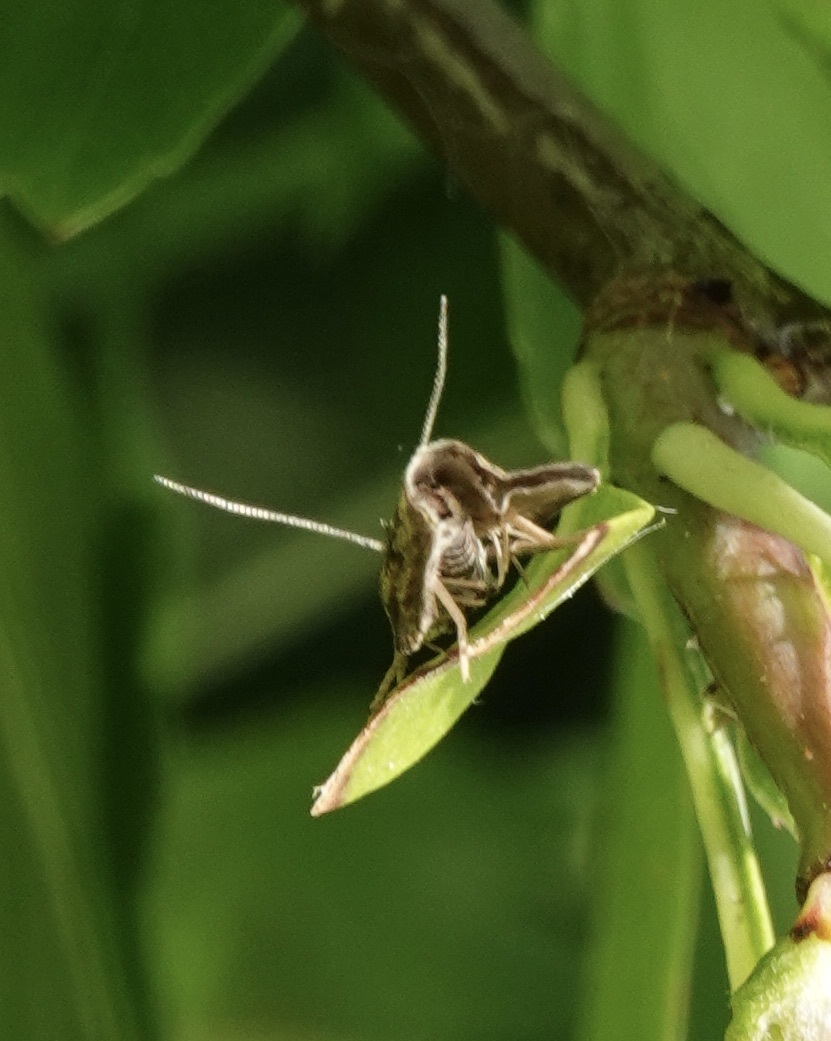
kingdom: Animalia
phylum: Arthropoda
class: Insecta
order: Lepidoptera
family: Tortricidae
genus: Syricoris
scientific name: Syricoris lacunana
